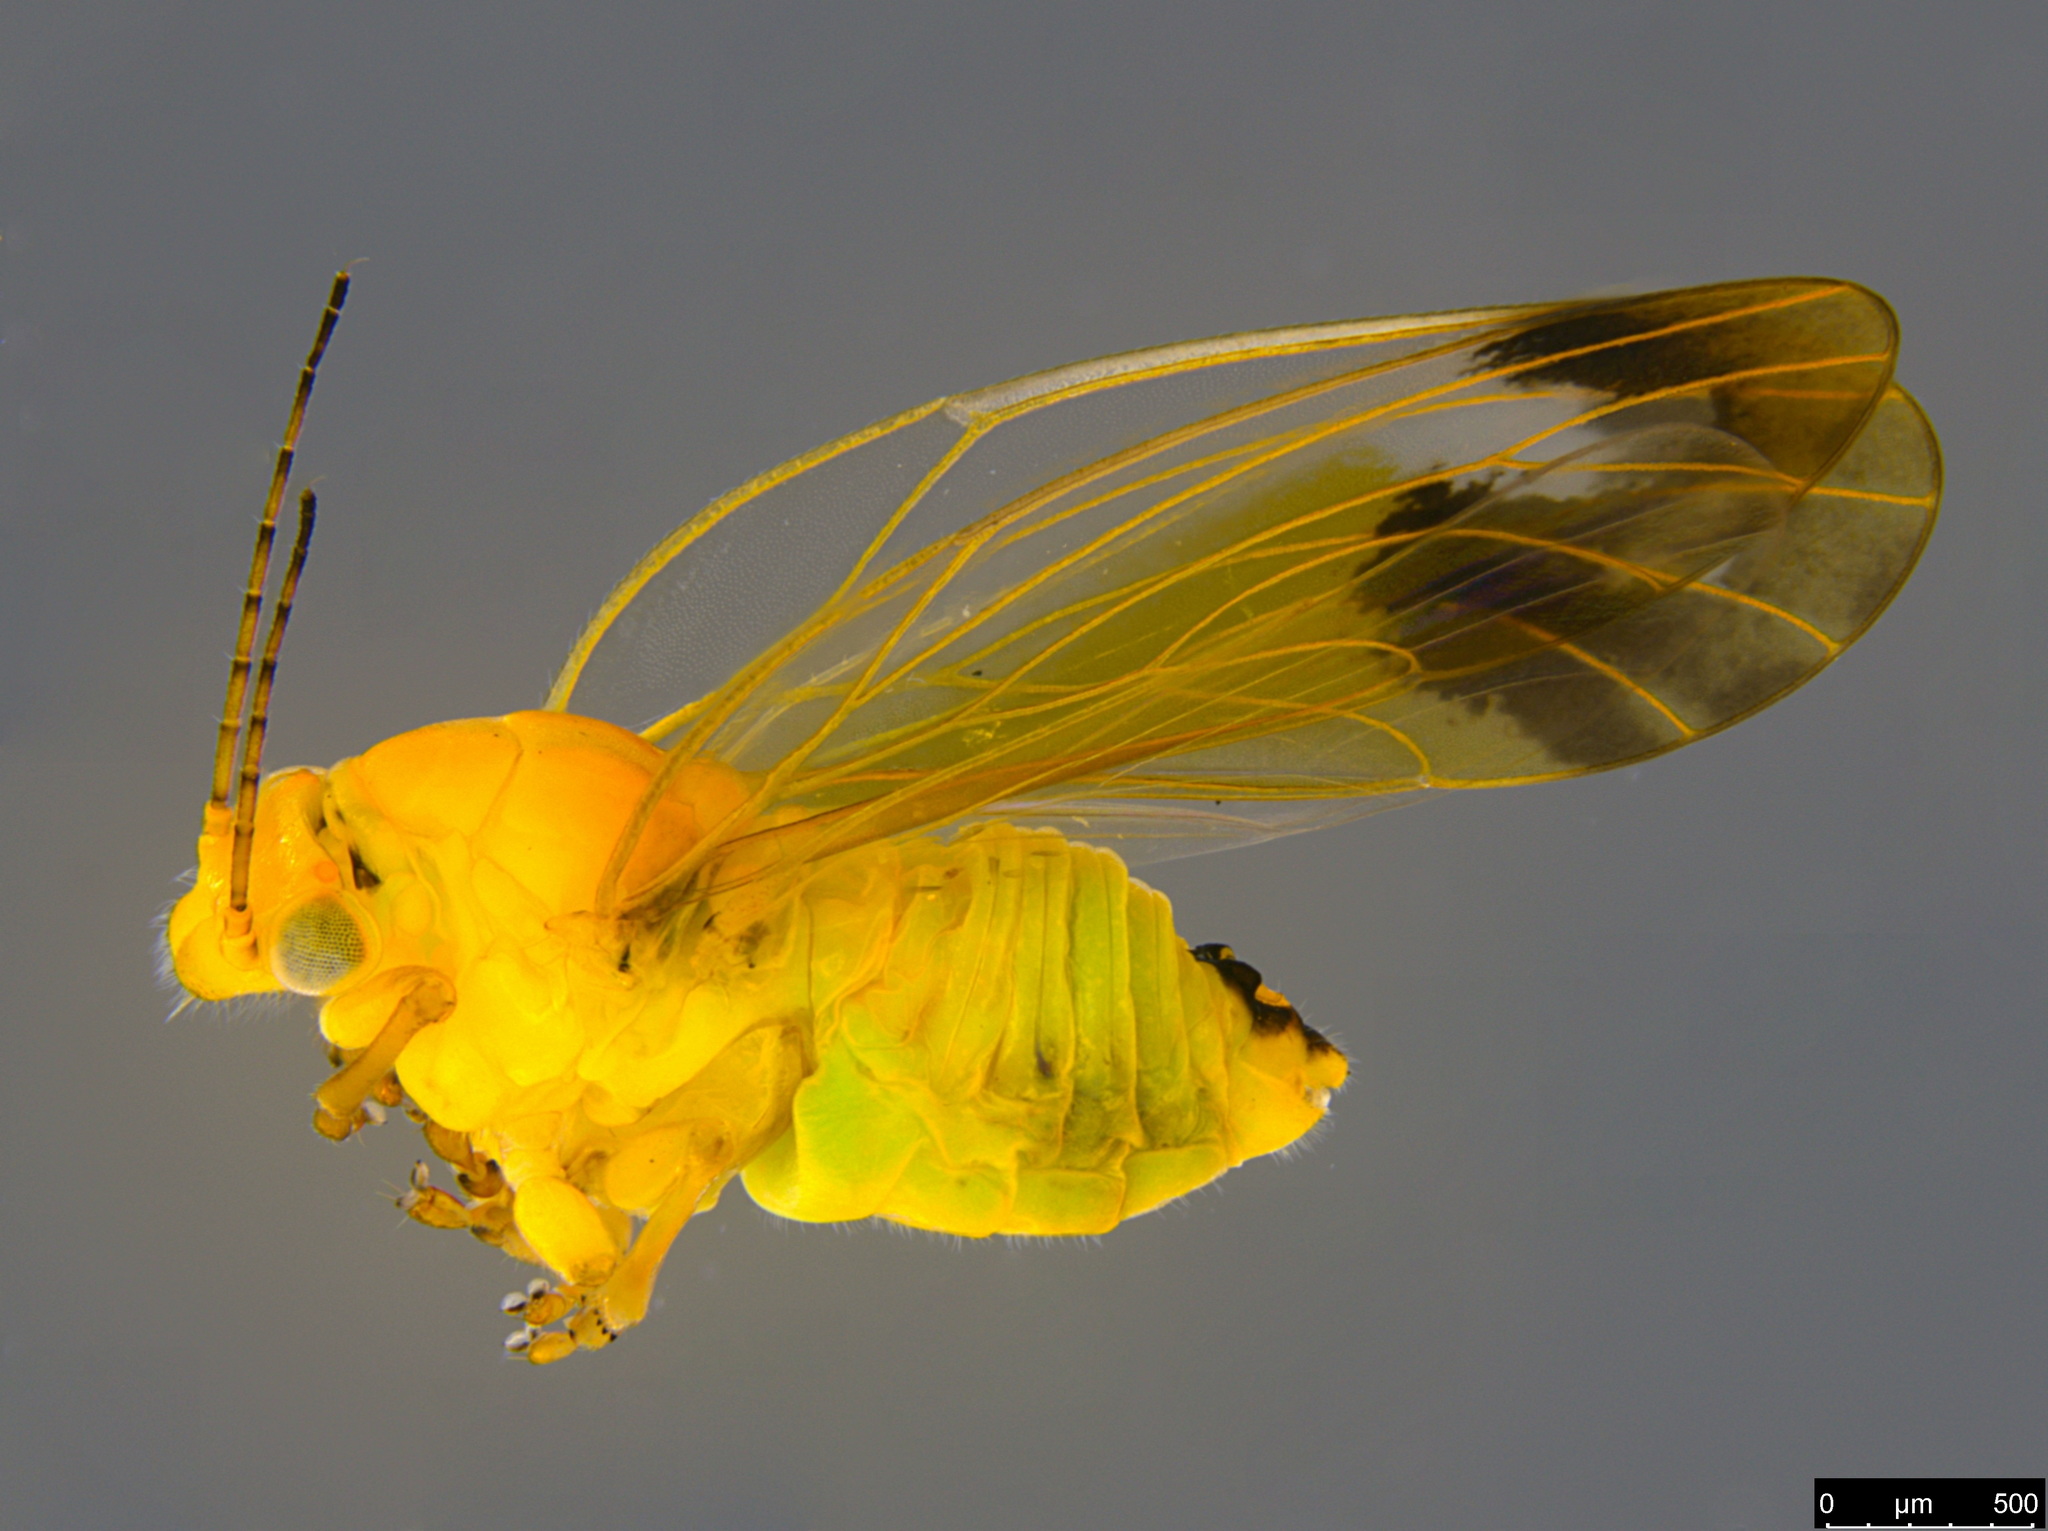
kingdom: Animalia
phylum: Arthropoda
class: Insecta
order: Hemiptera
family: Aphalaridae
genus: Australopsylla
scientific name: Australopsylla revoluta
